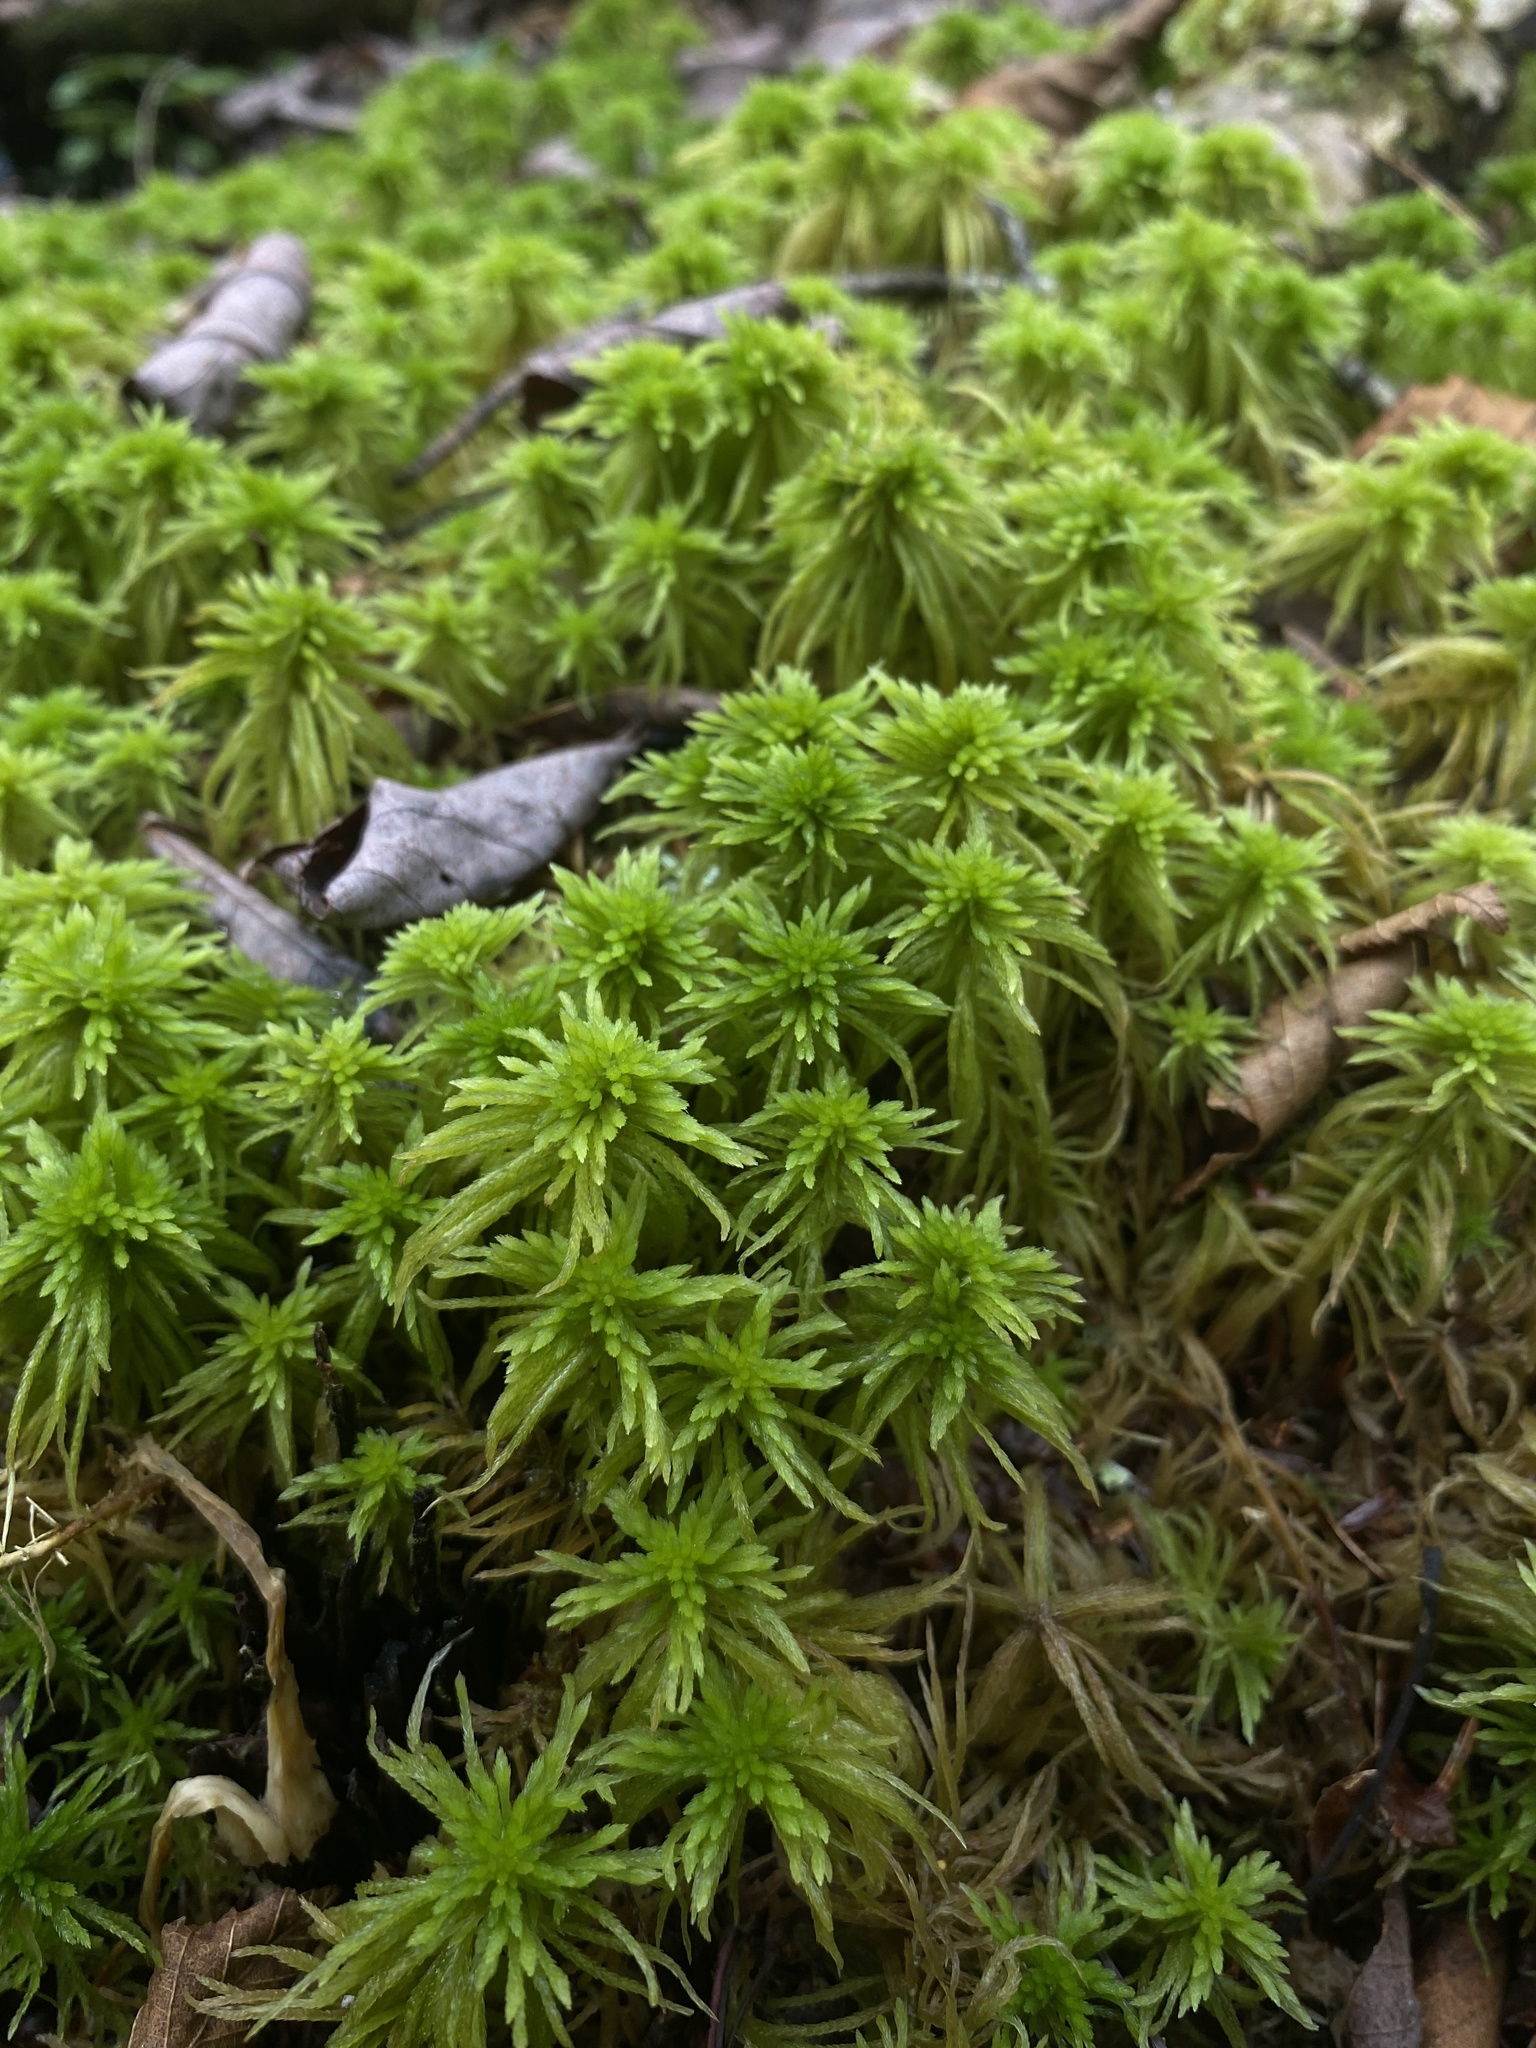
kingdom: Plantae
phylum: Bryophyta
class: Sphagnopsida
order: Sphagnales
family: Sphagnaceae
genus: Sphagnum
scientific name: Sphagnum girgensohnii
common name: Girgensohn's peat moss
